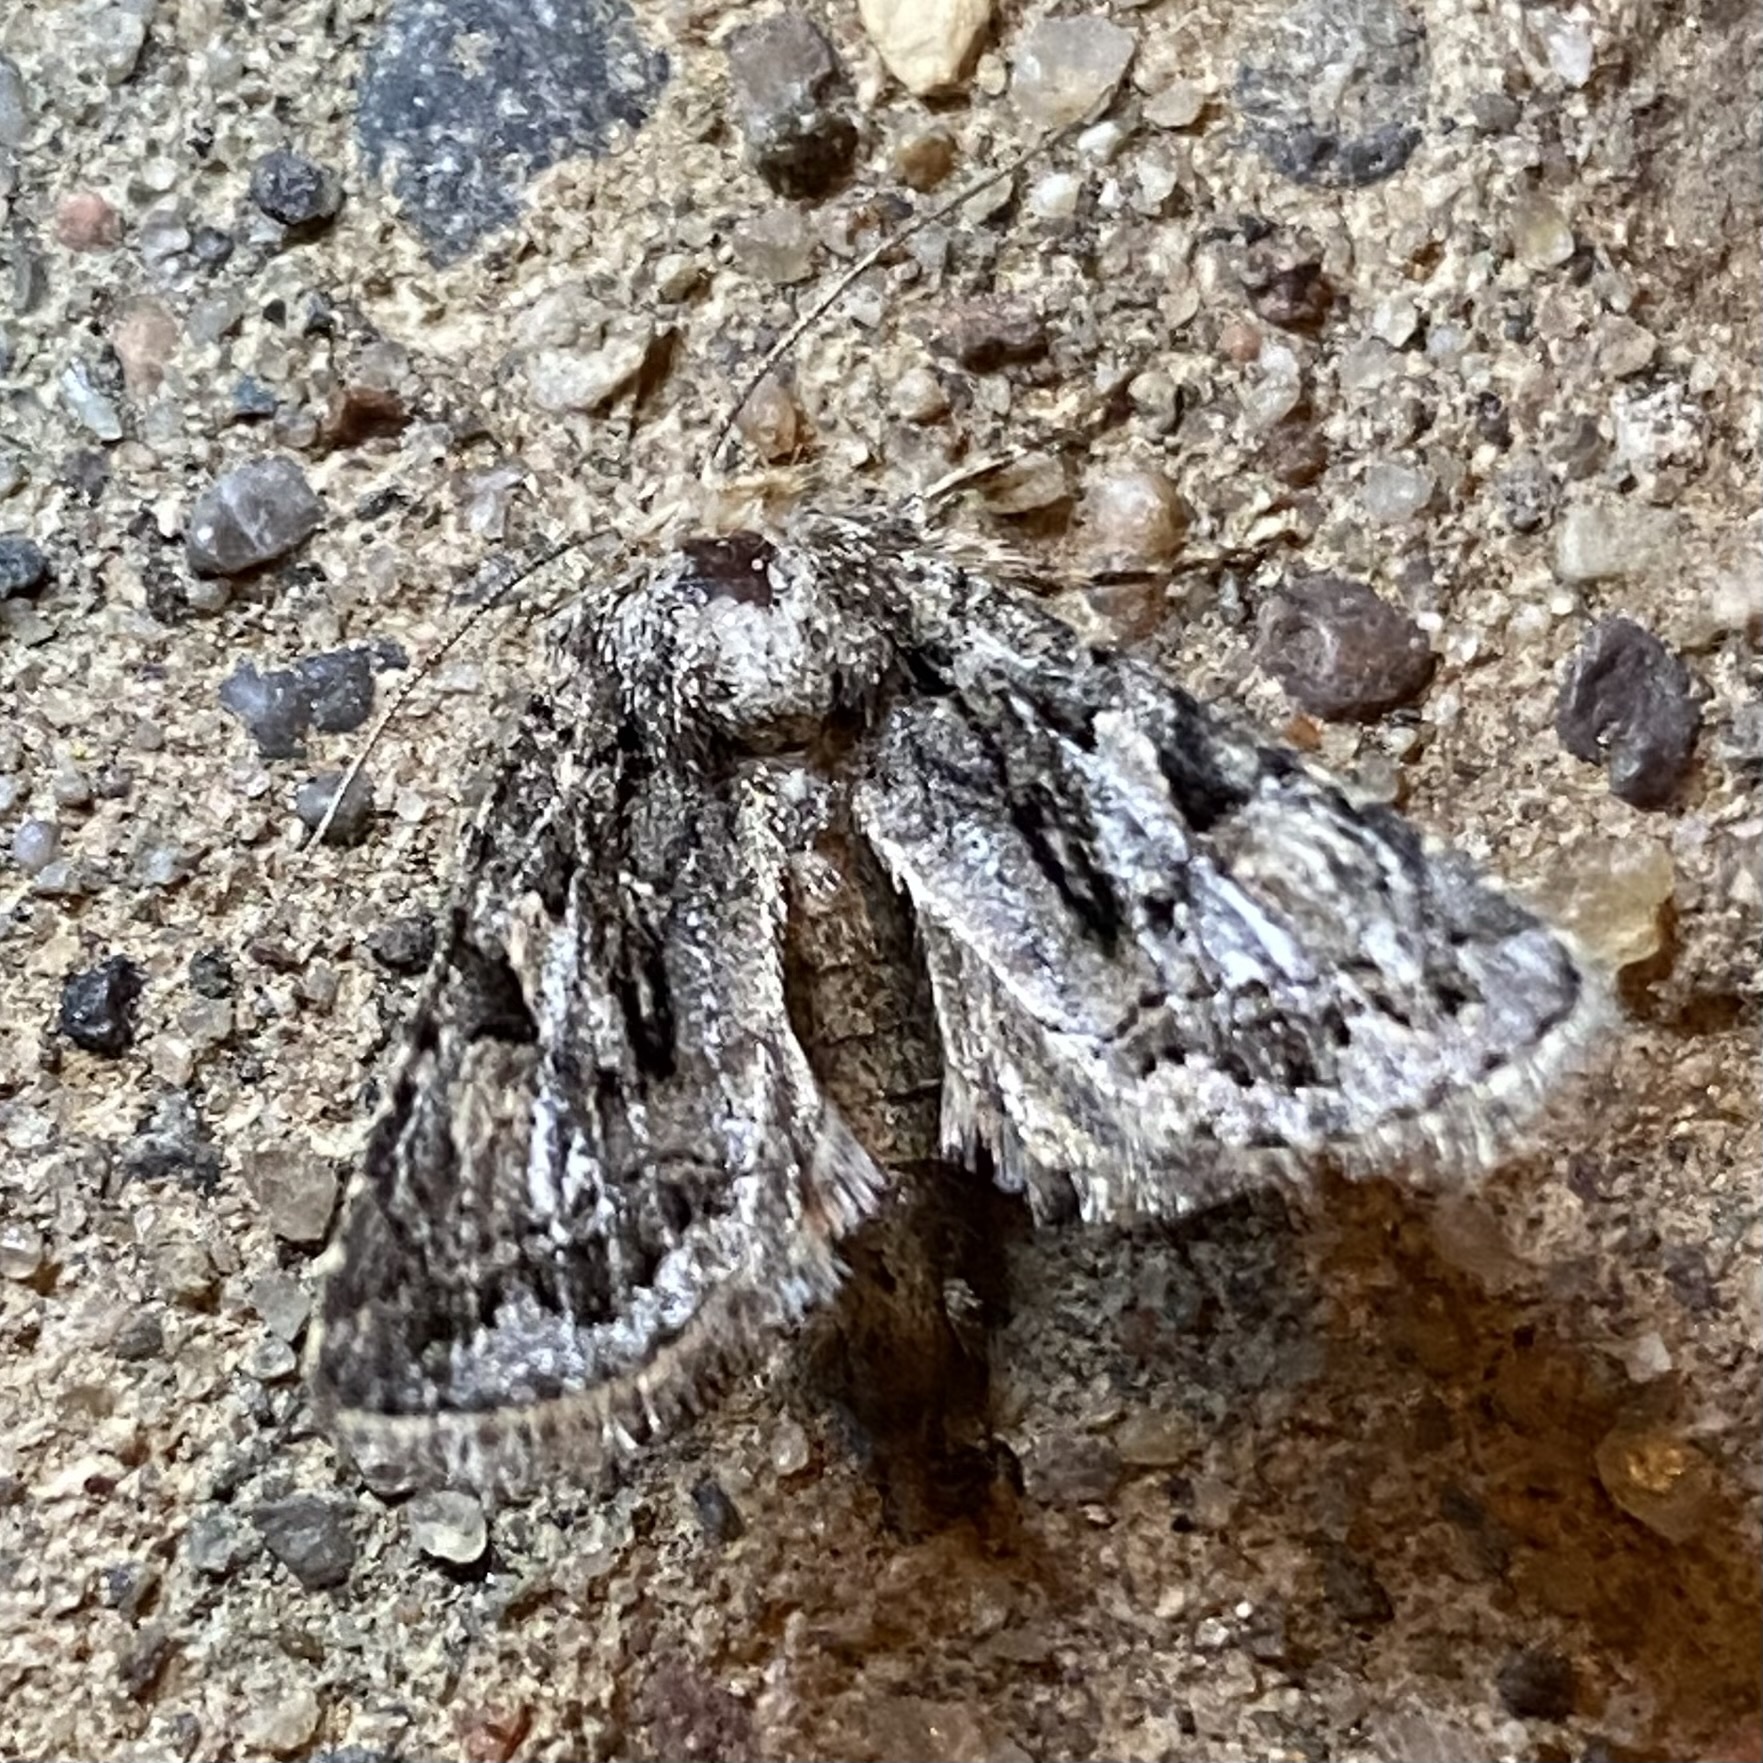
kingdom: Animalia
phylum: Arthropoda
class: Insecta
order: Lepidoptera
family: Noctuidae
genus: Ulolonche
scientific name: Ulolonche orbiculata
